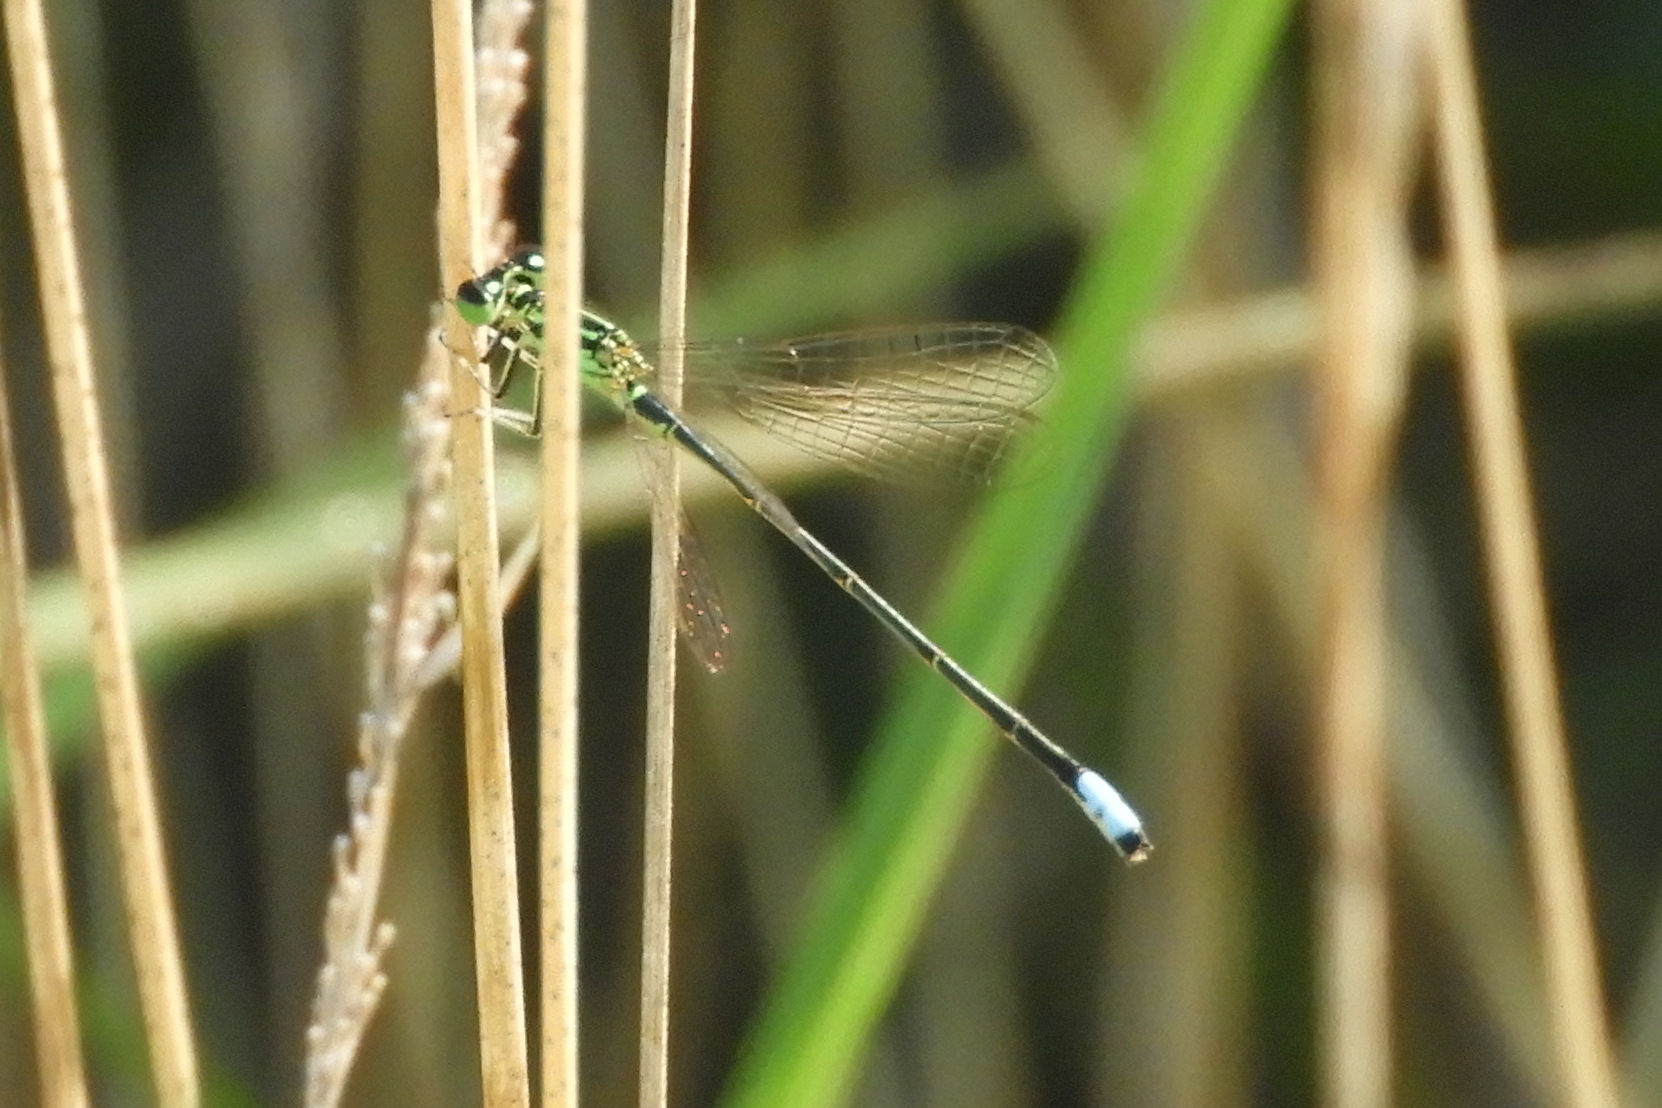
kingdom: Animalia
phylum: Arthropoda
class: Insecta
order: Odonata
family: Coenagrionidae
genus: Ischnura
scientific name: Ischnura verticalis
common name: Eastern forktail
